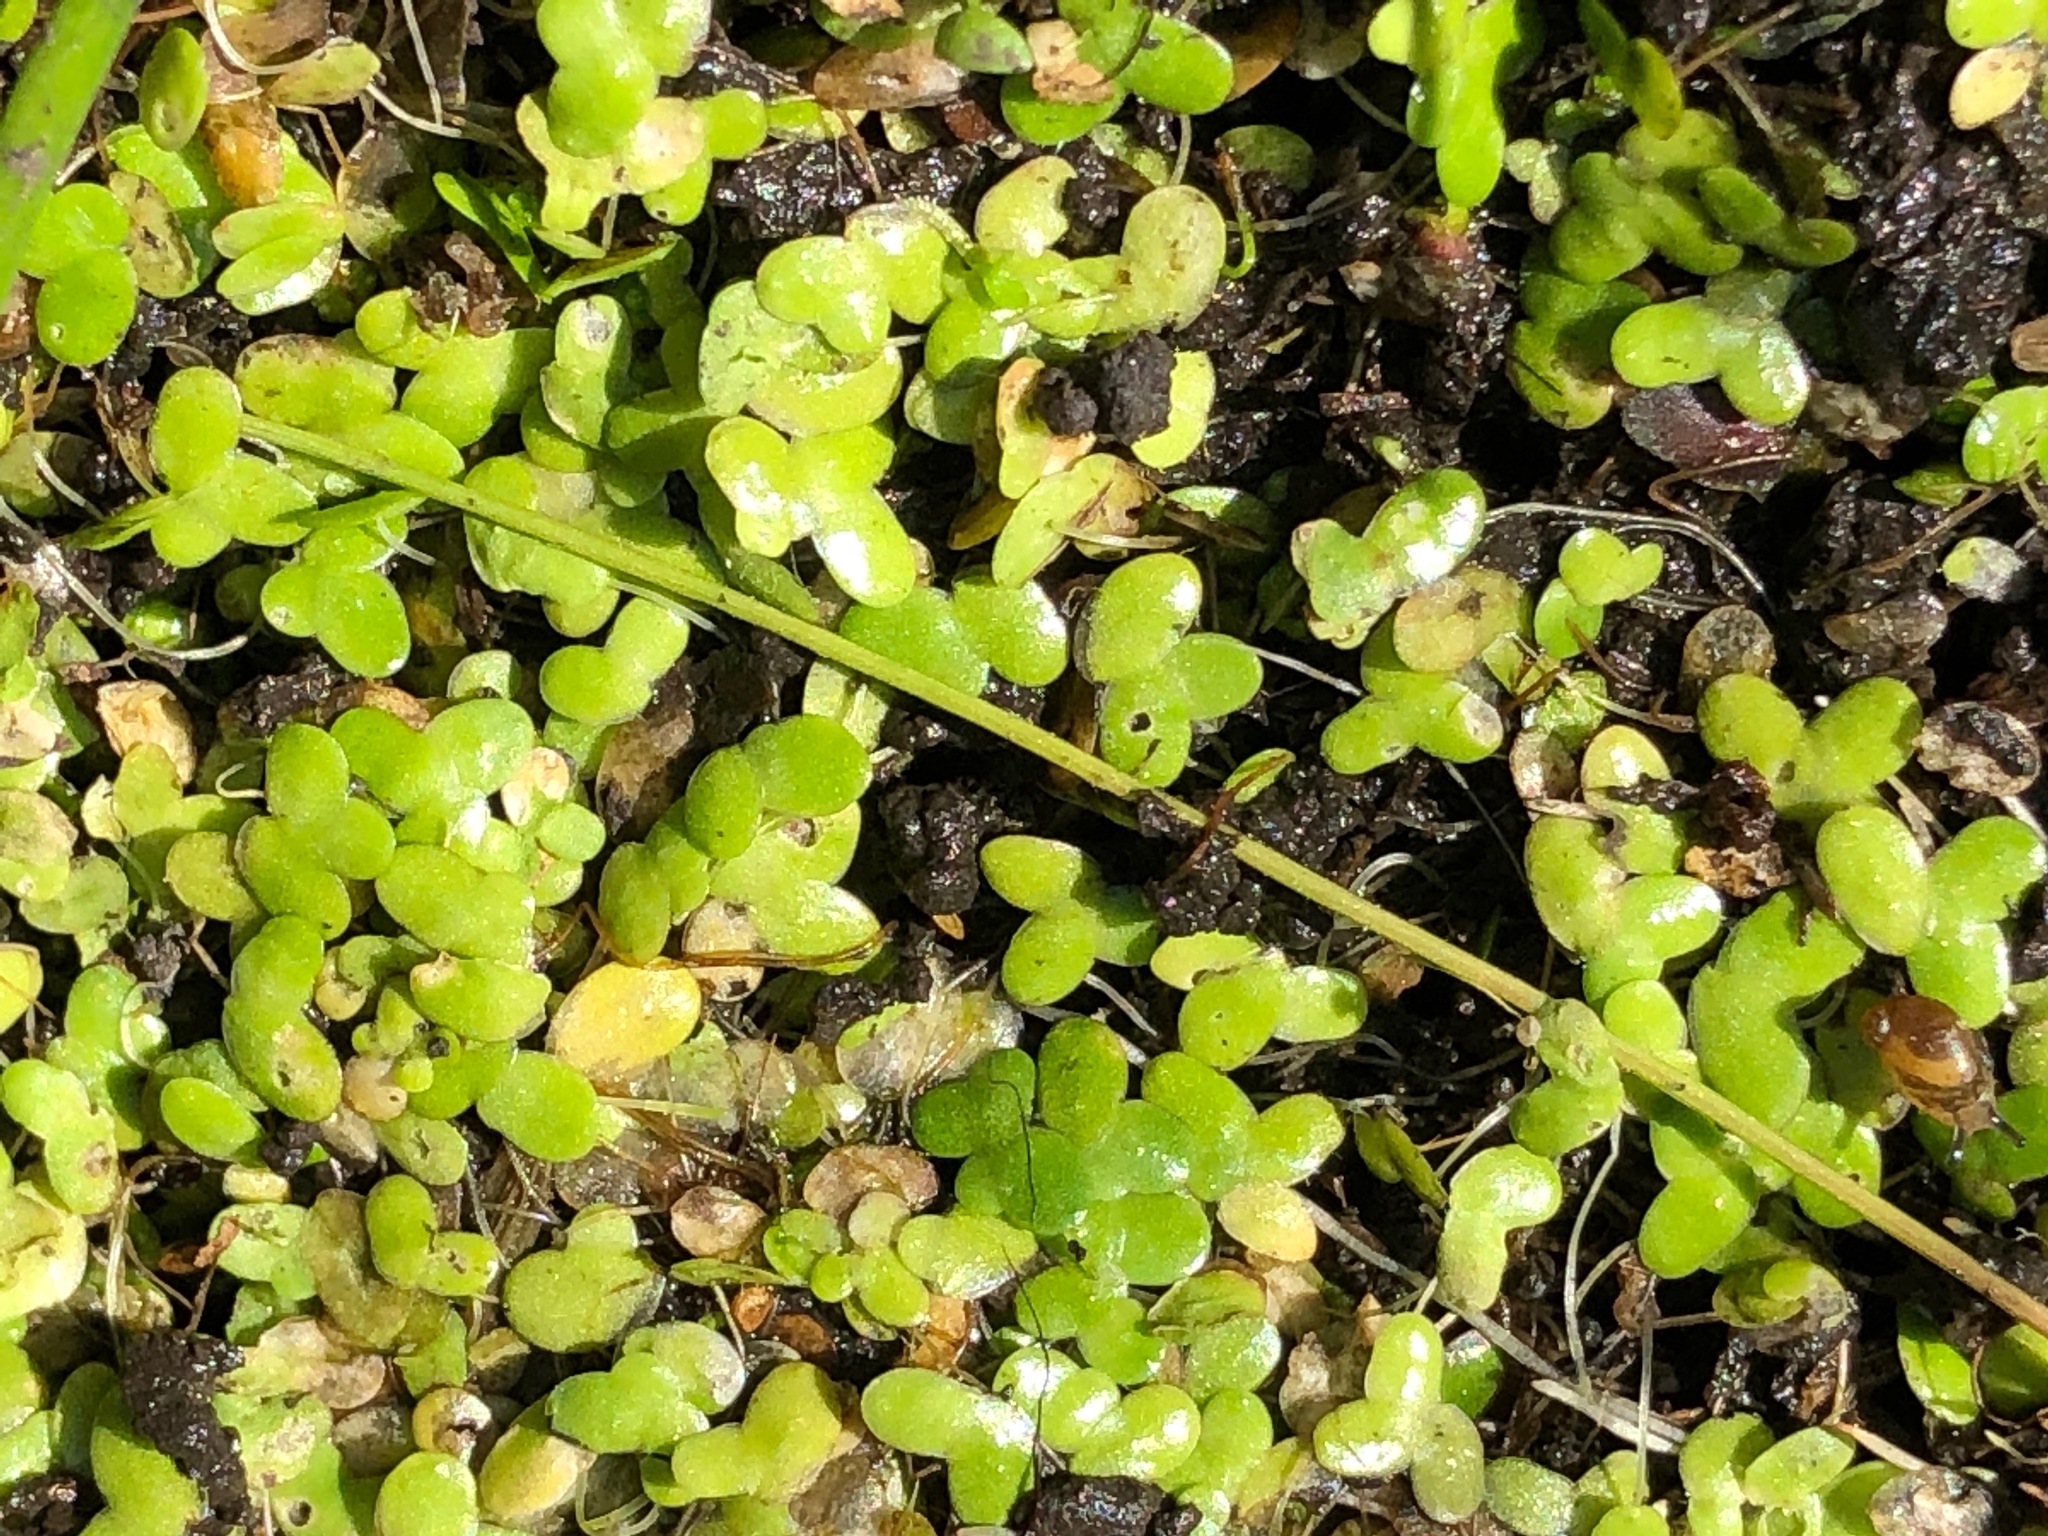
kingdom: Plantae
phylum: Tracheophyta
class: Liliopsida
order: Alismatales
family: Araceae
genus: Lemna
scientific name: Lemna minuta
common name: Least duckweed
